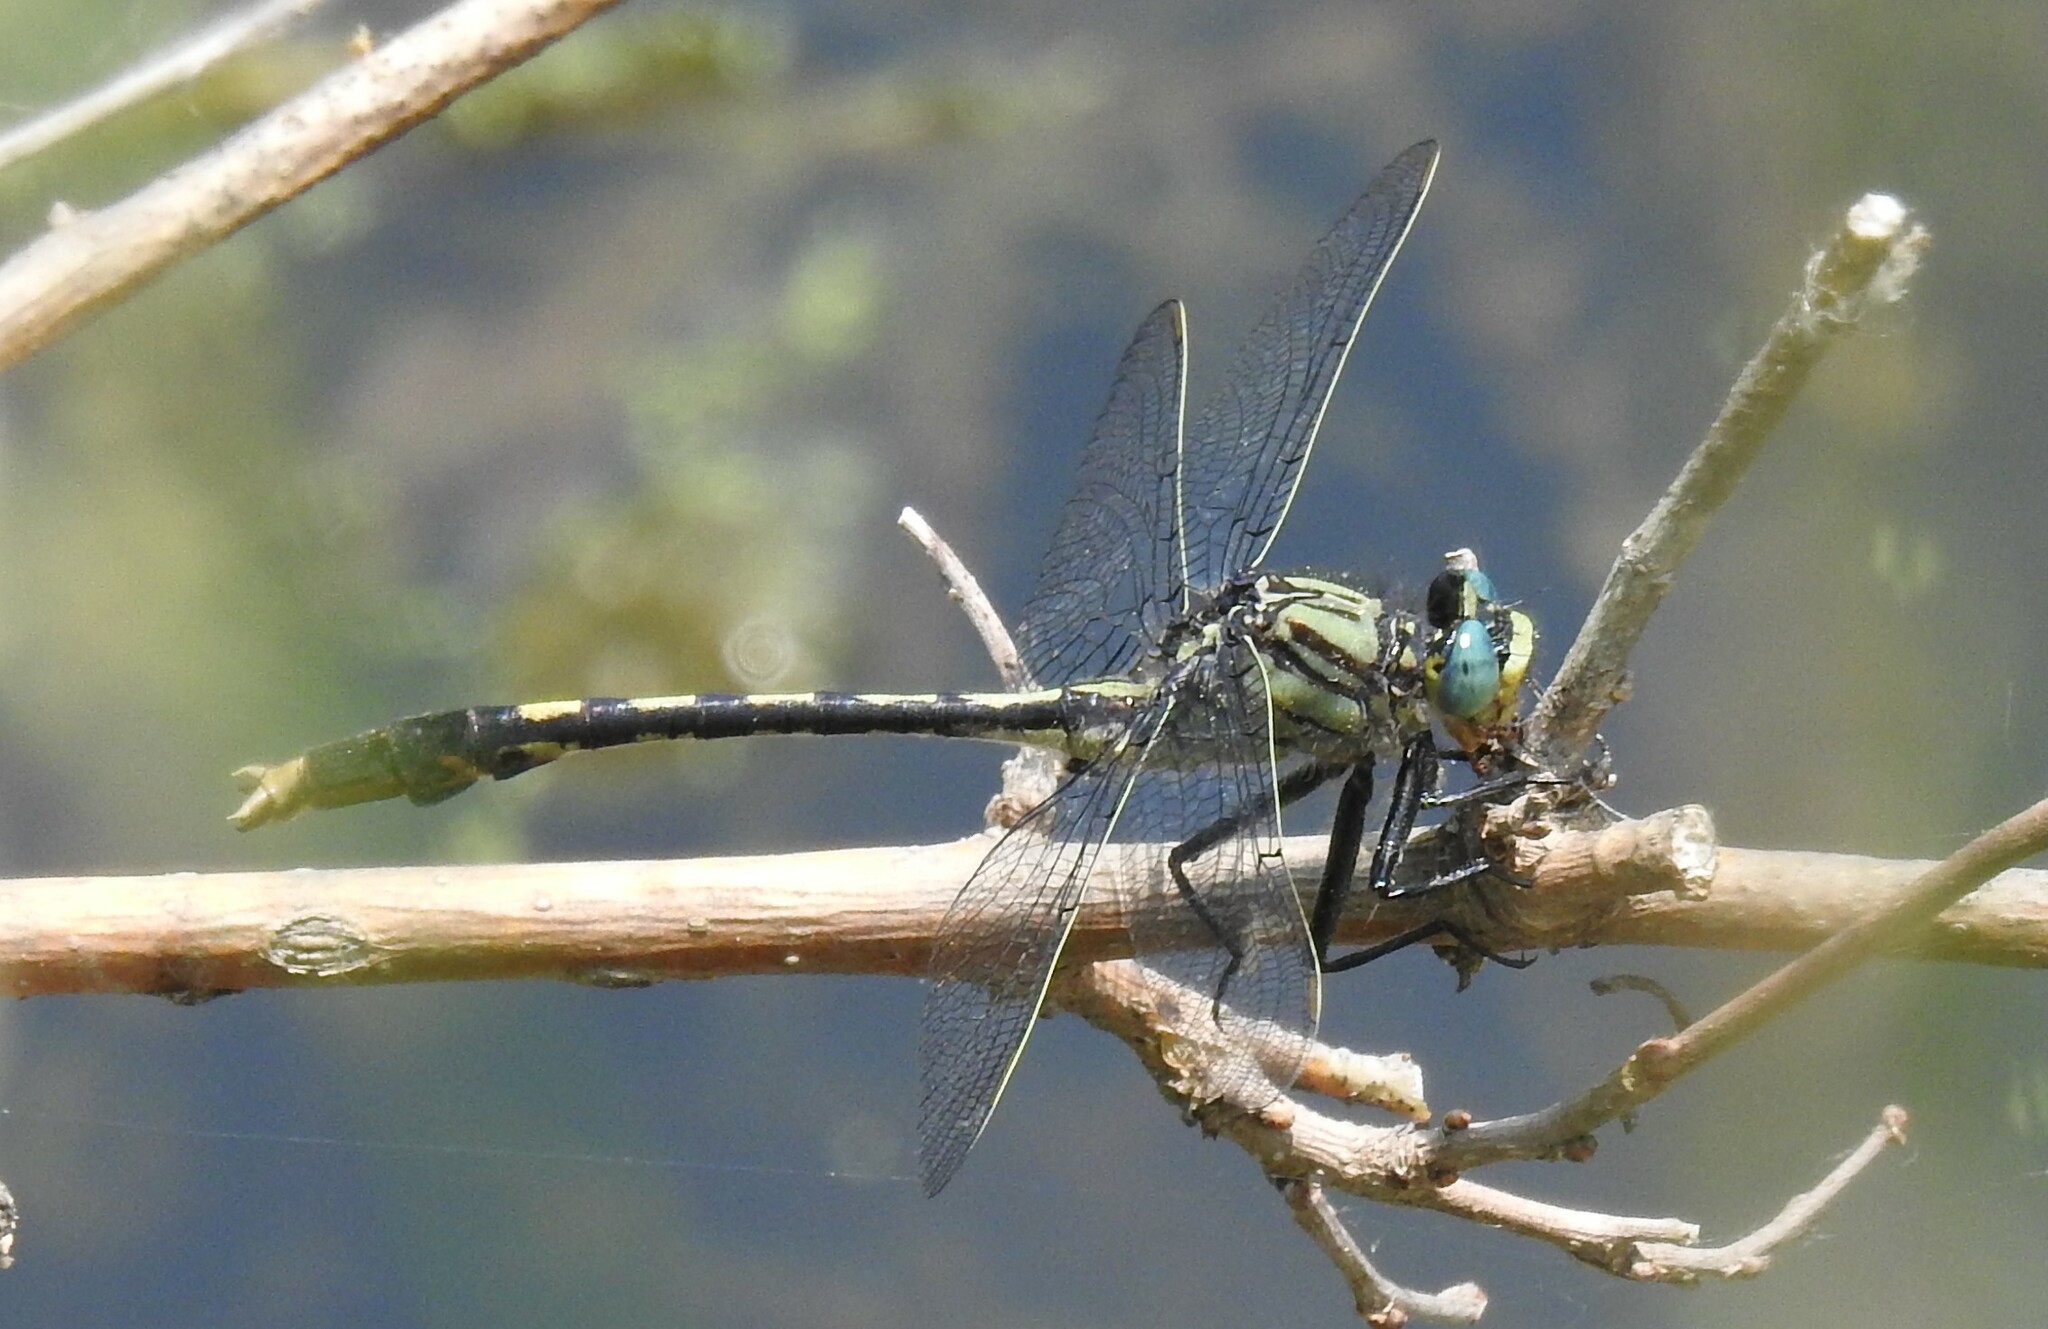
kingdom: Animalia
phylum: Arthropoda
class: Insecta
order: Odonata
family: Gomphidae
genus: Arigomphus
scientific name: Arigomphus villosipes
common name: Unicorn clubtail
